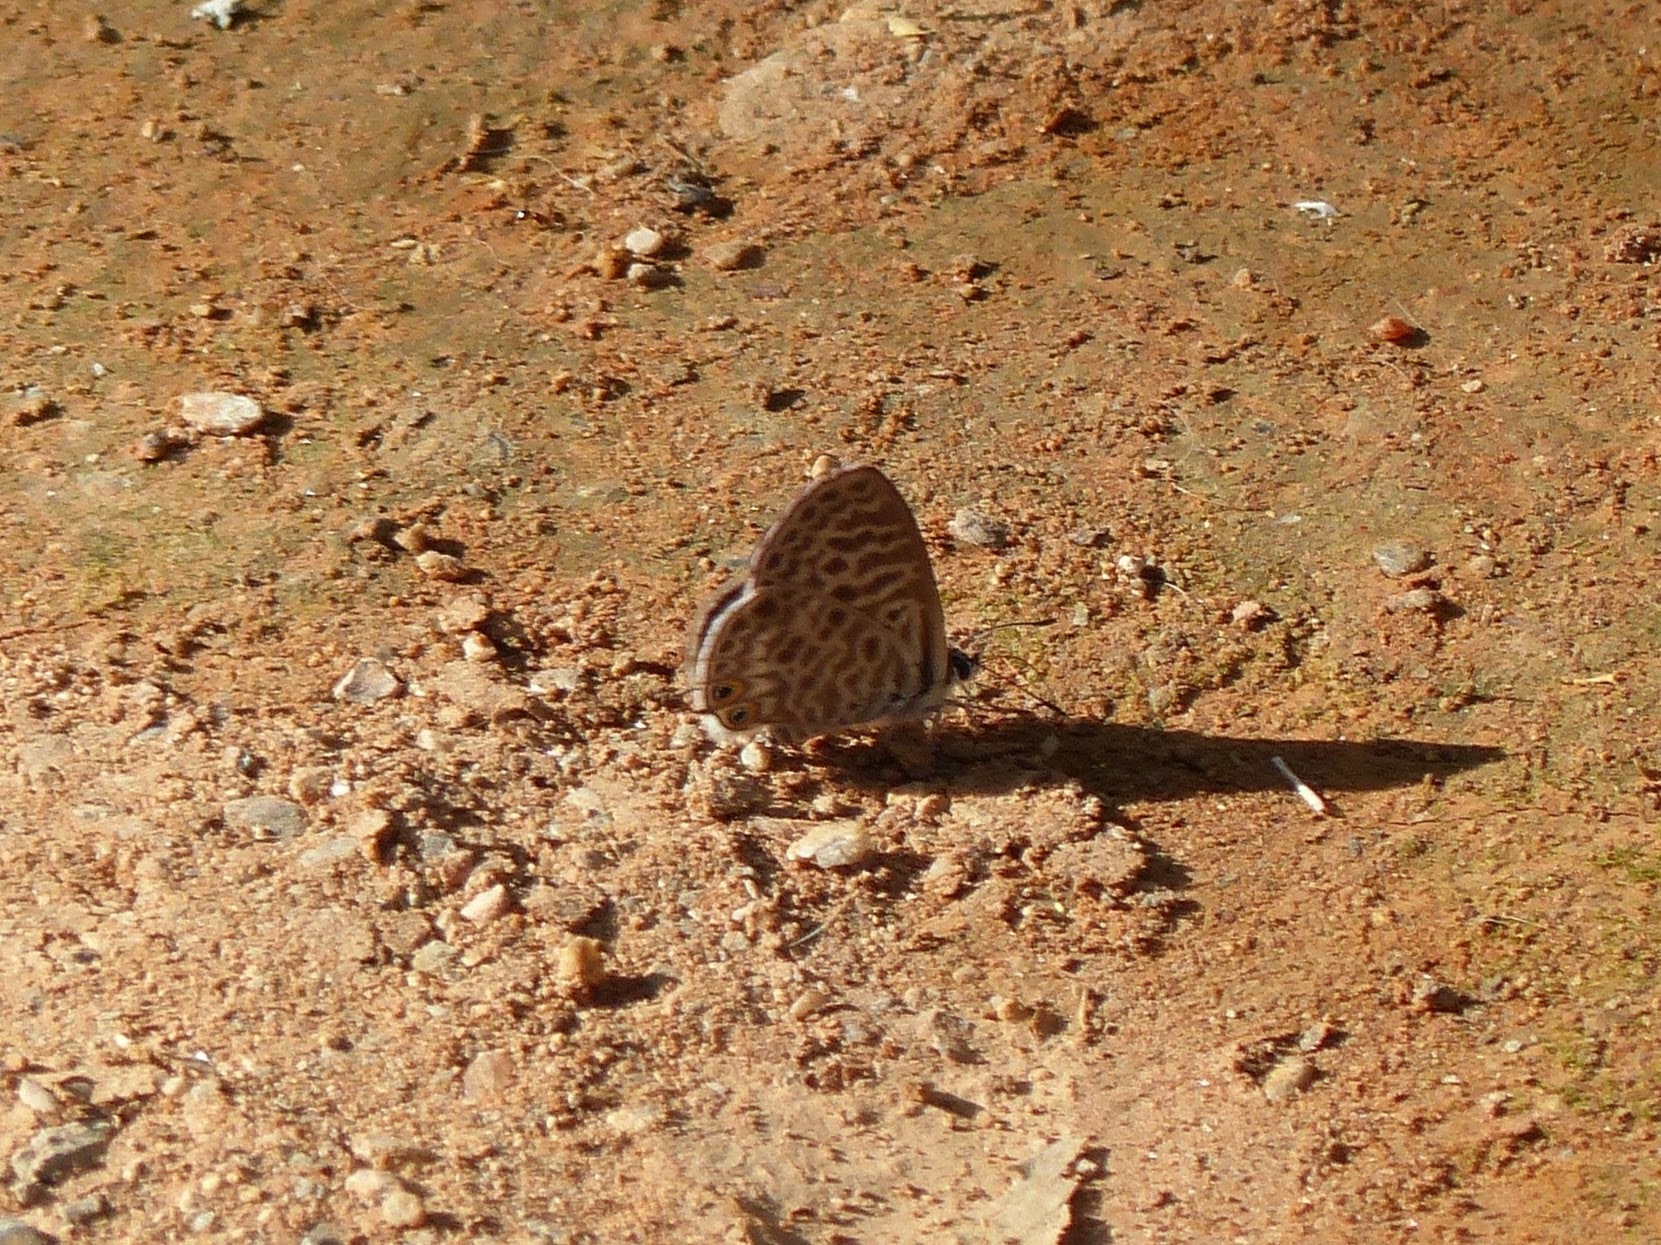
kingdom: Animalia
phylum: Arthropoda
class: Insecta
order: Lepidoptera
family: Lycaenidae
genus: Leptotes
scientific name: Leptotes pirithous
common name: Lang's short-tailed blue
